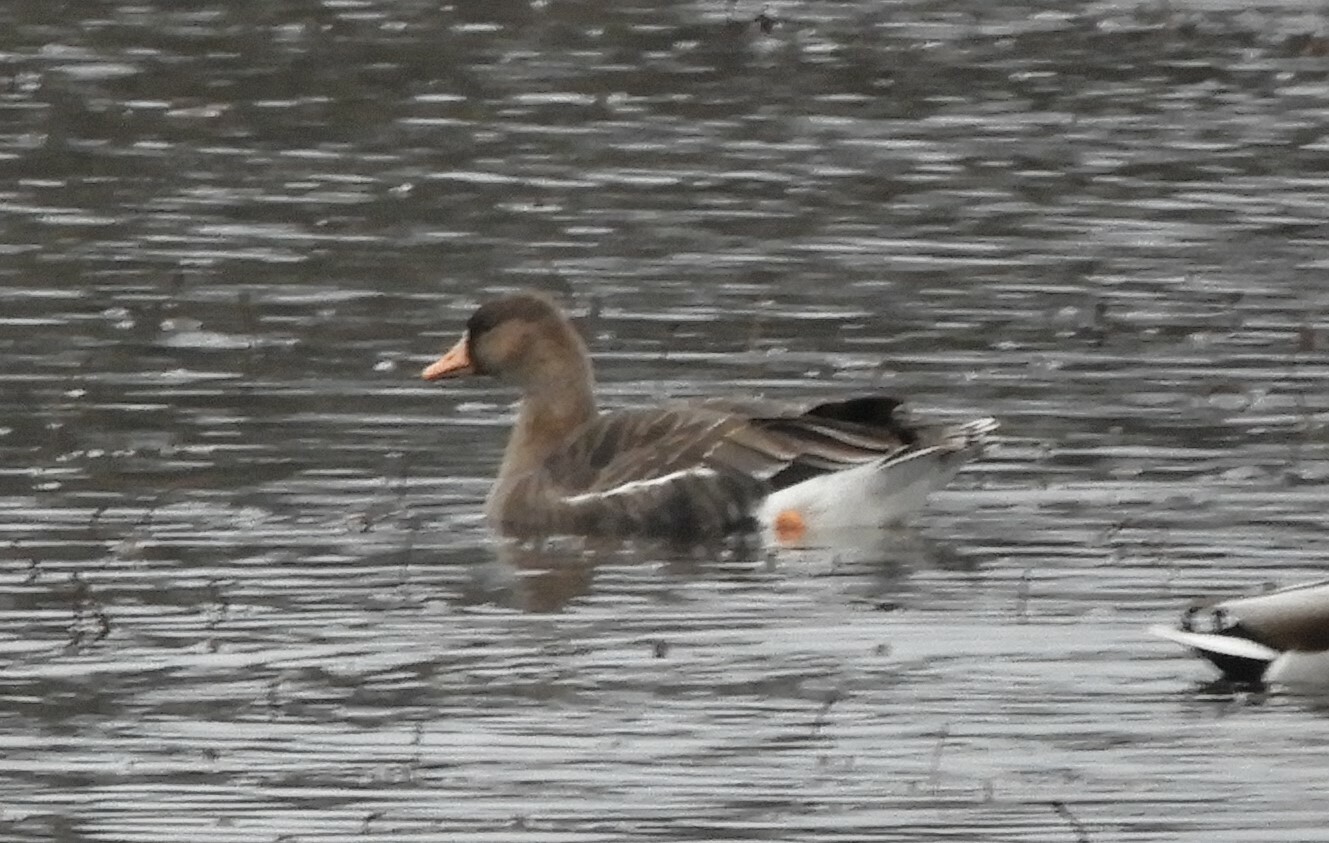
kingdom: Animalia
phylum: Chordata
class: Aves
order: Anseriformes
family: Anatidae
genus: Anser
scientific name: Anser albifrons
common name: Greater white-fronted goose
